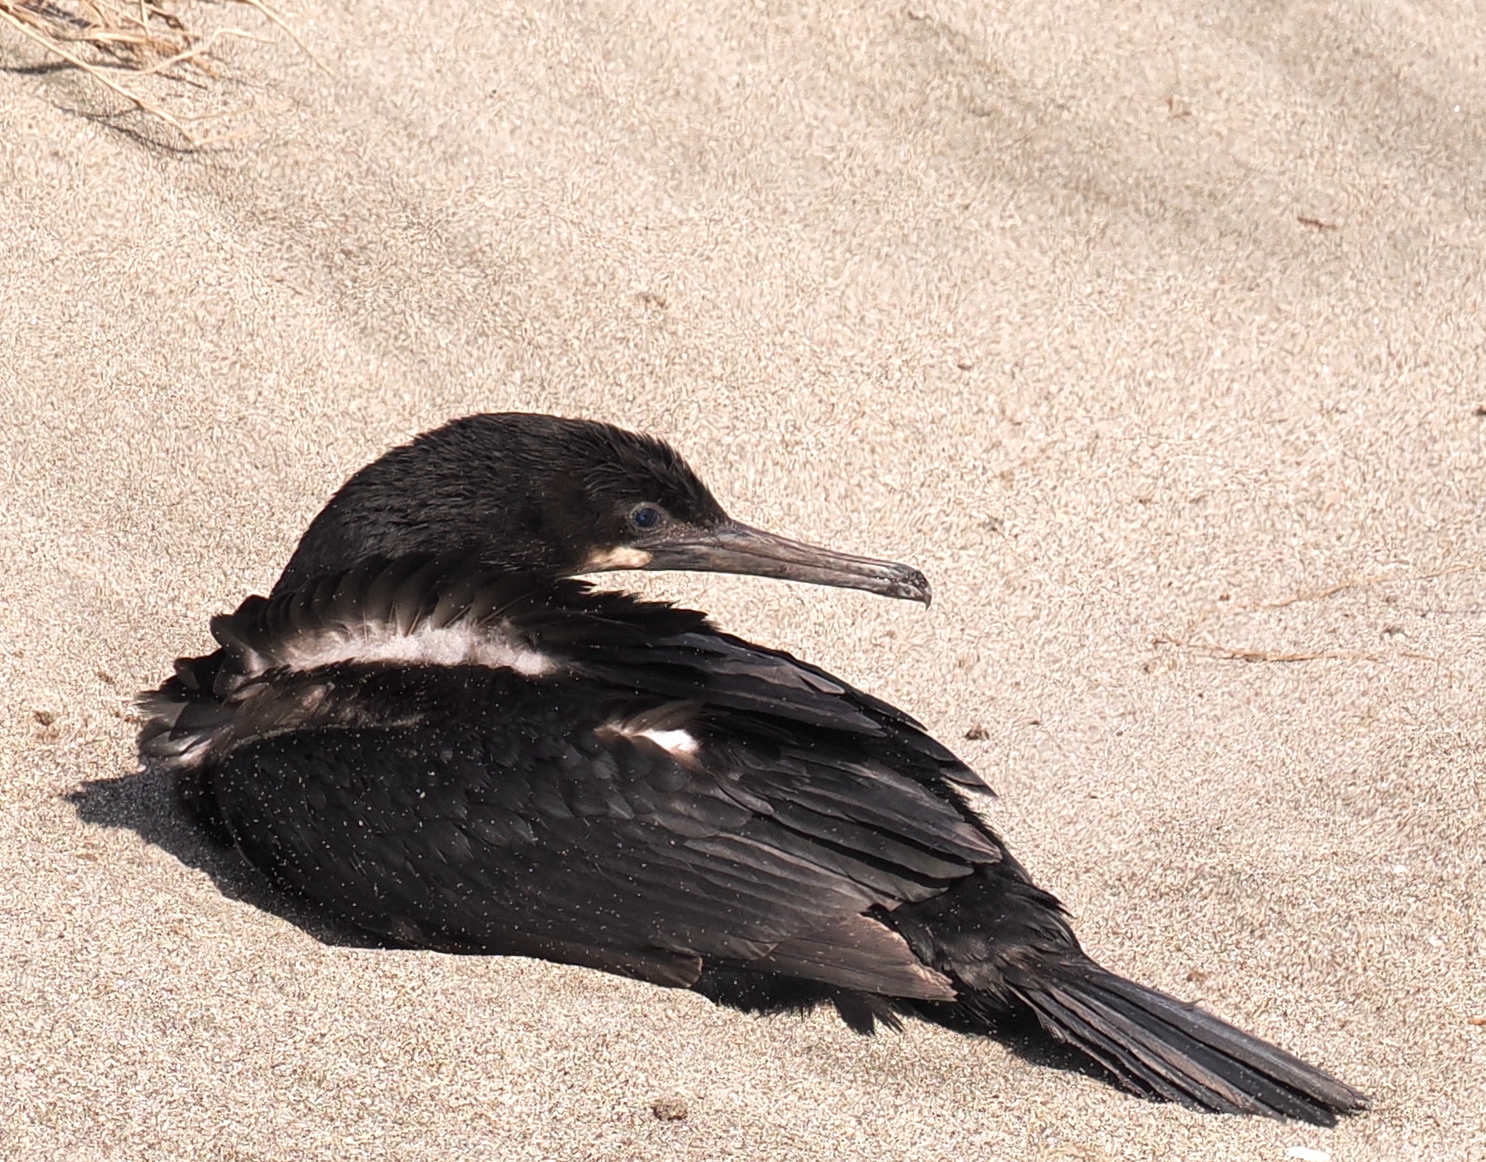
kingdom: Animalia
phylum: Chordata
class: Aves
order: Suliformes
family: Phalacrocoracidae
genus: Urile
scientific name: Urile penicillatus
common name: Brandt's cormorant
